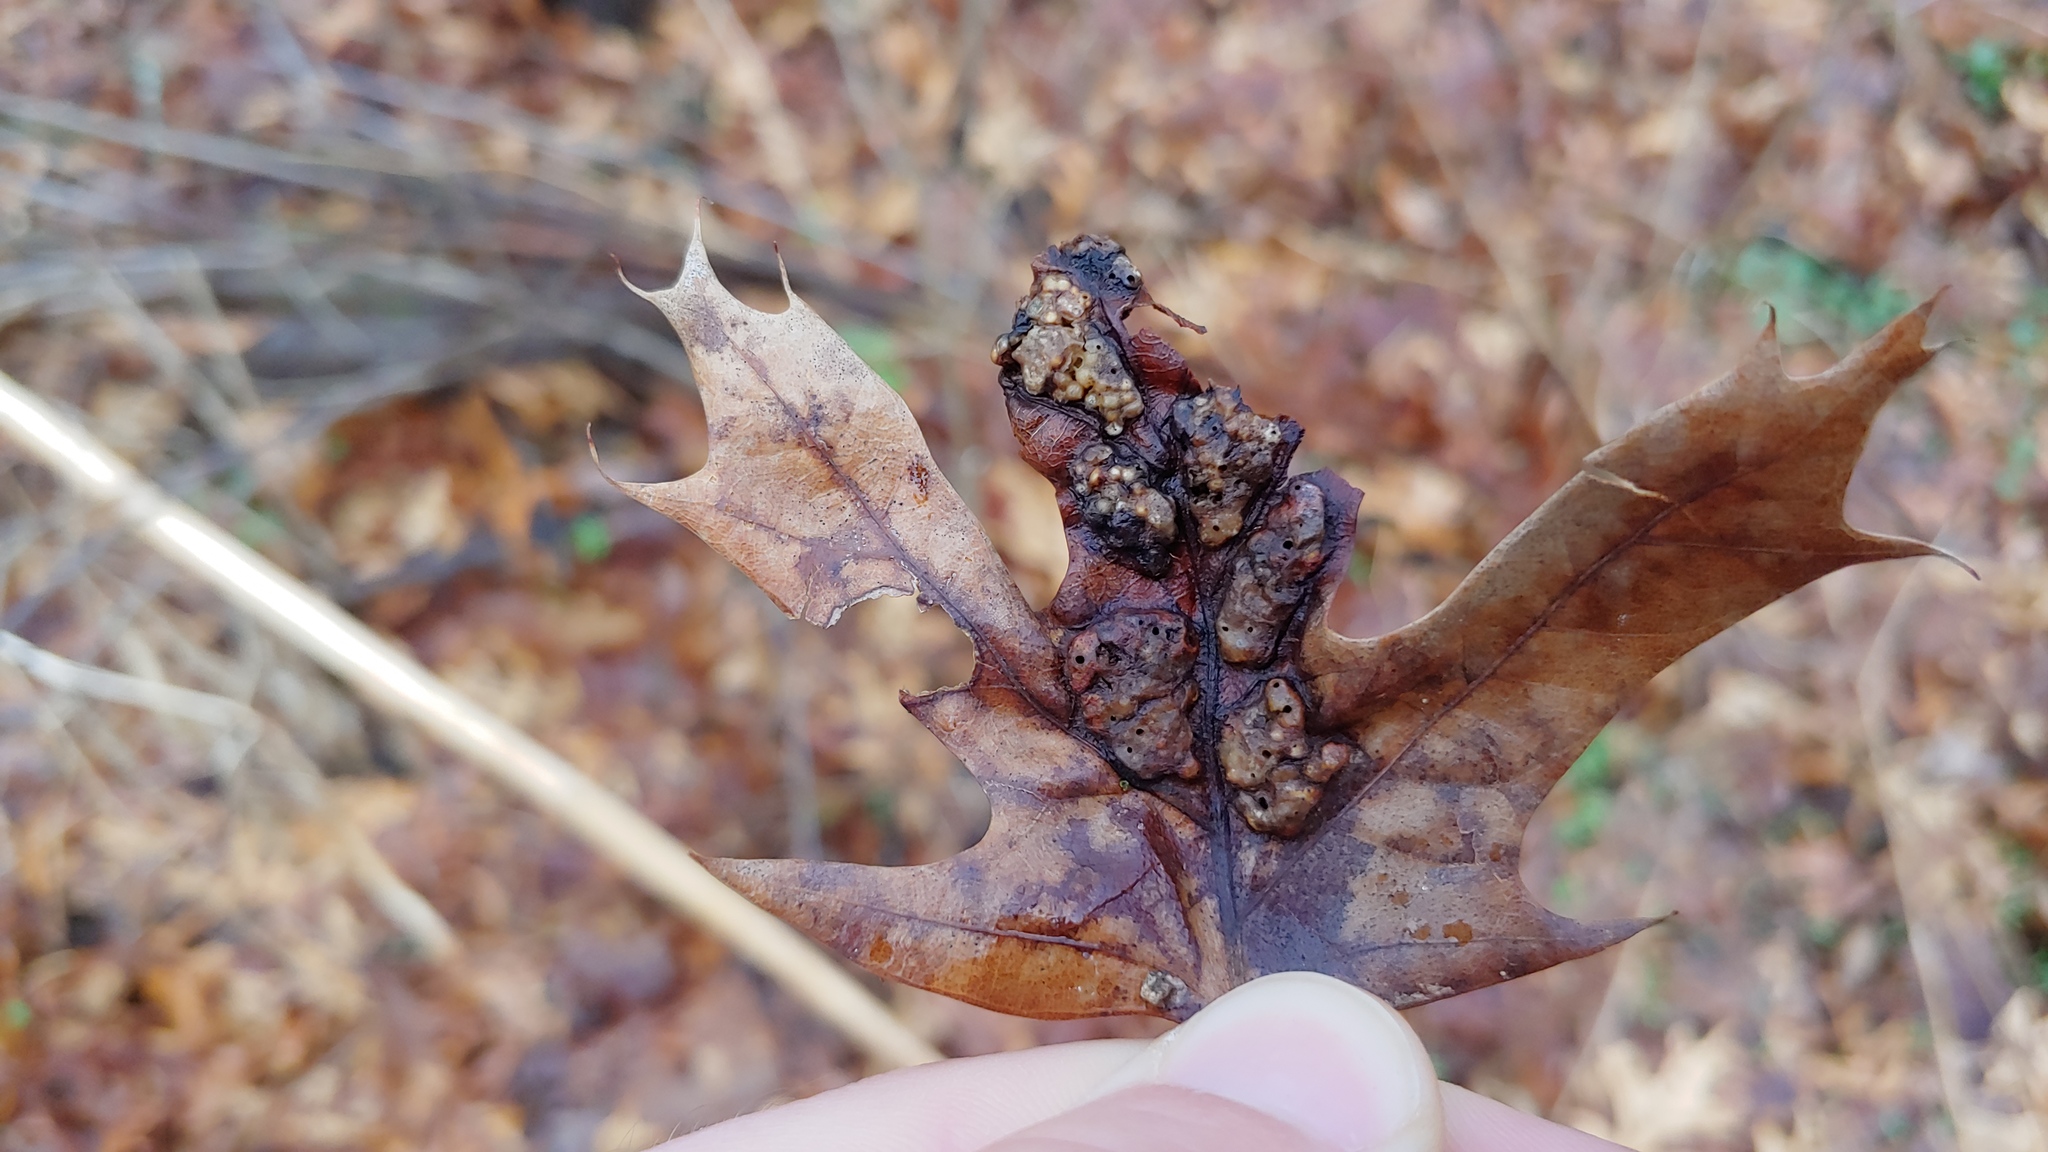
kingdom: Animalia
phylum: Arthropoda
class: Insecta
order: Hymenoptera
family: Cynipidae
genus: Callirhytis
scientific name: Callirhytis
